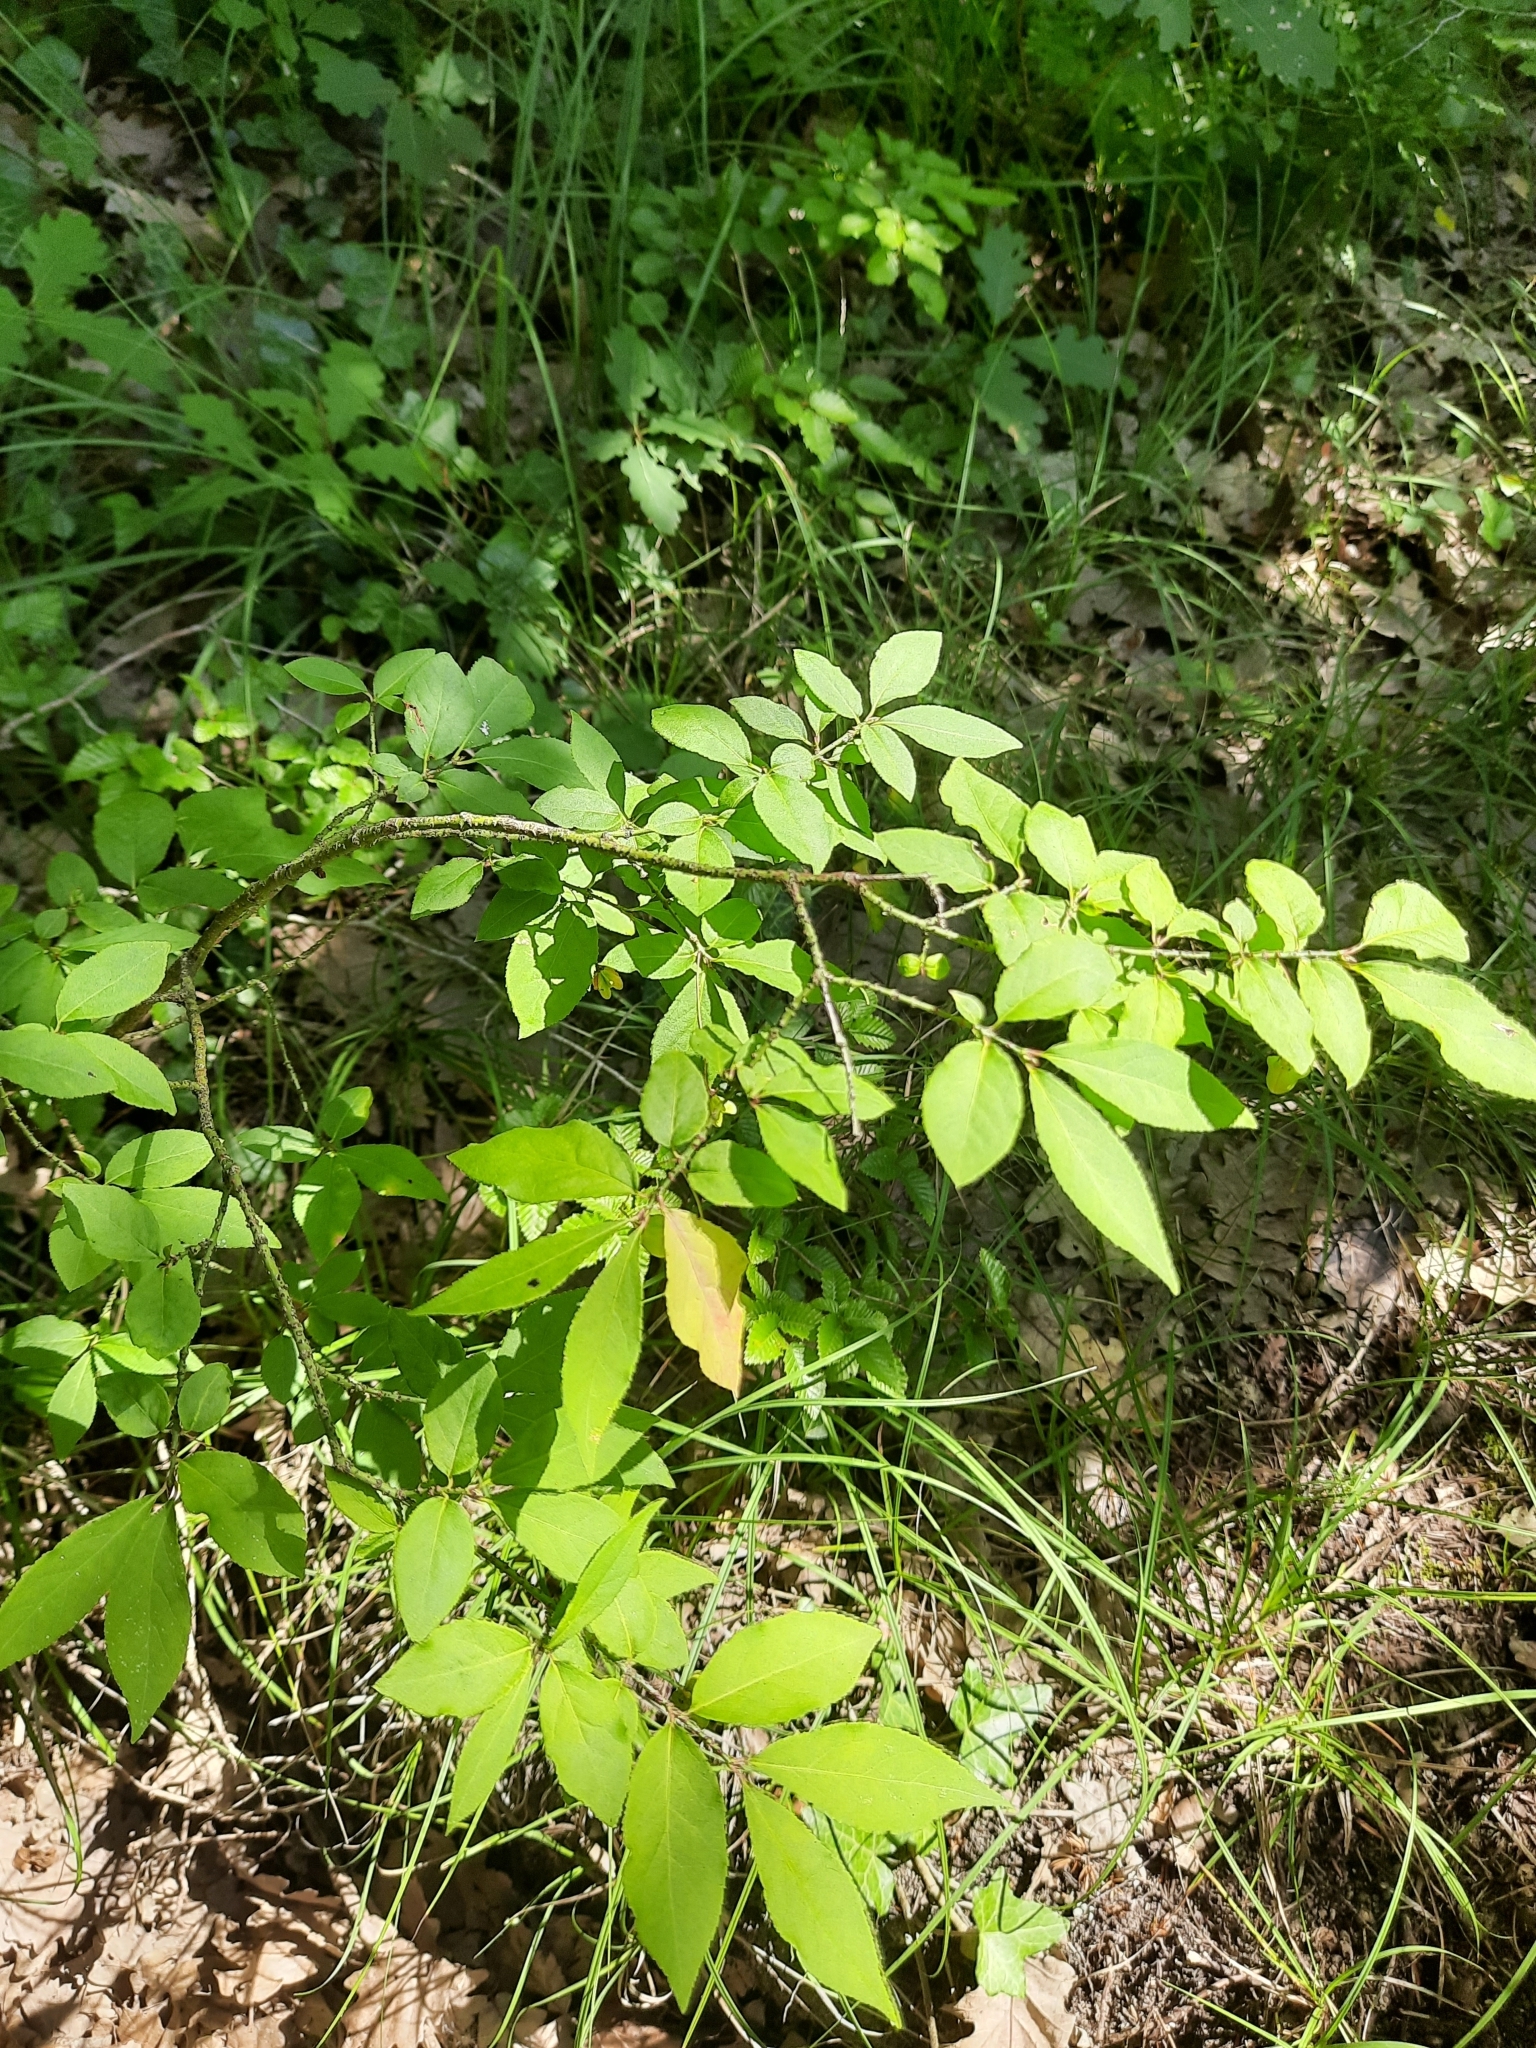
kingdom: Plantae
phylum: Tracheophyta
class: Magnoliopsida
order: Celastrales
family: Celastraceae
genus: Euonymus
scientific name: Euonymus verrucosus
